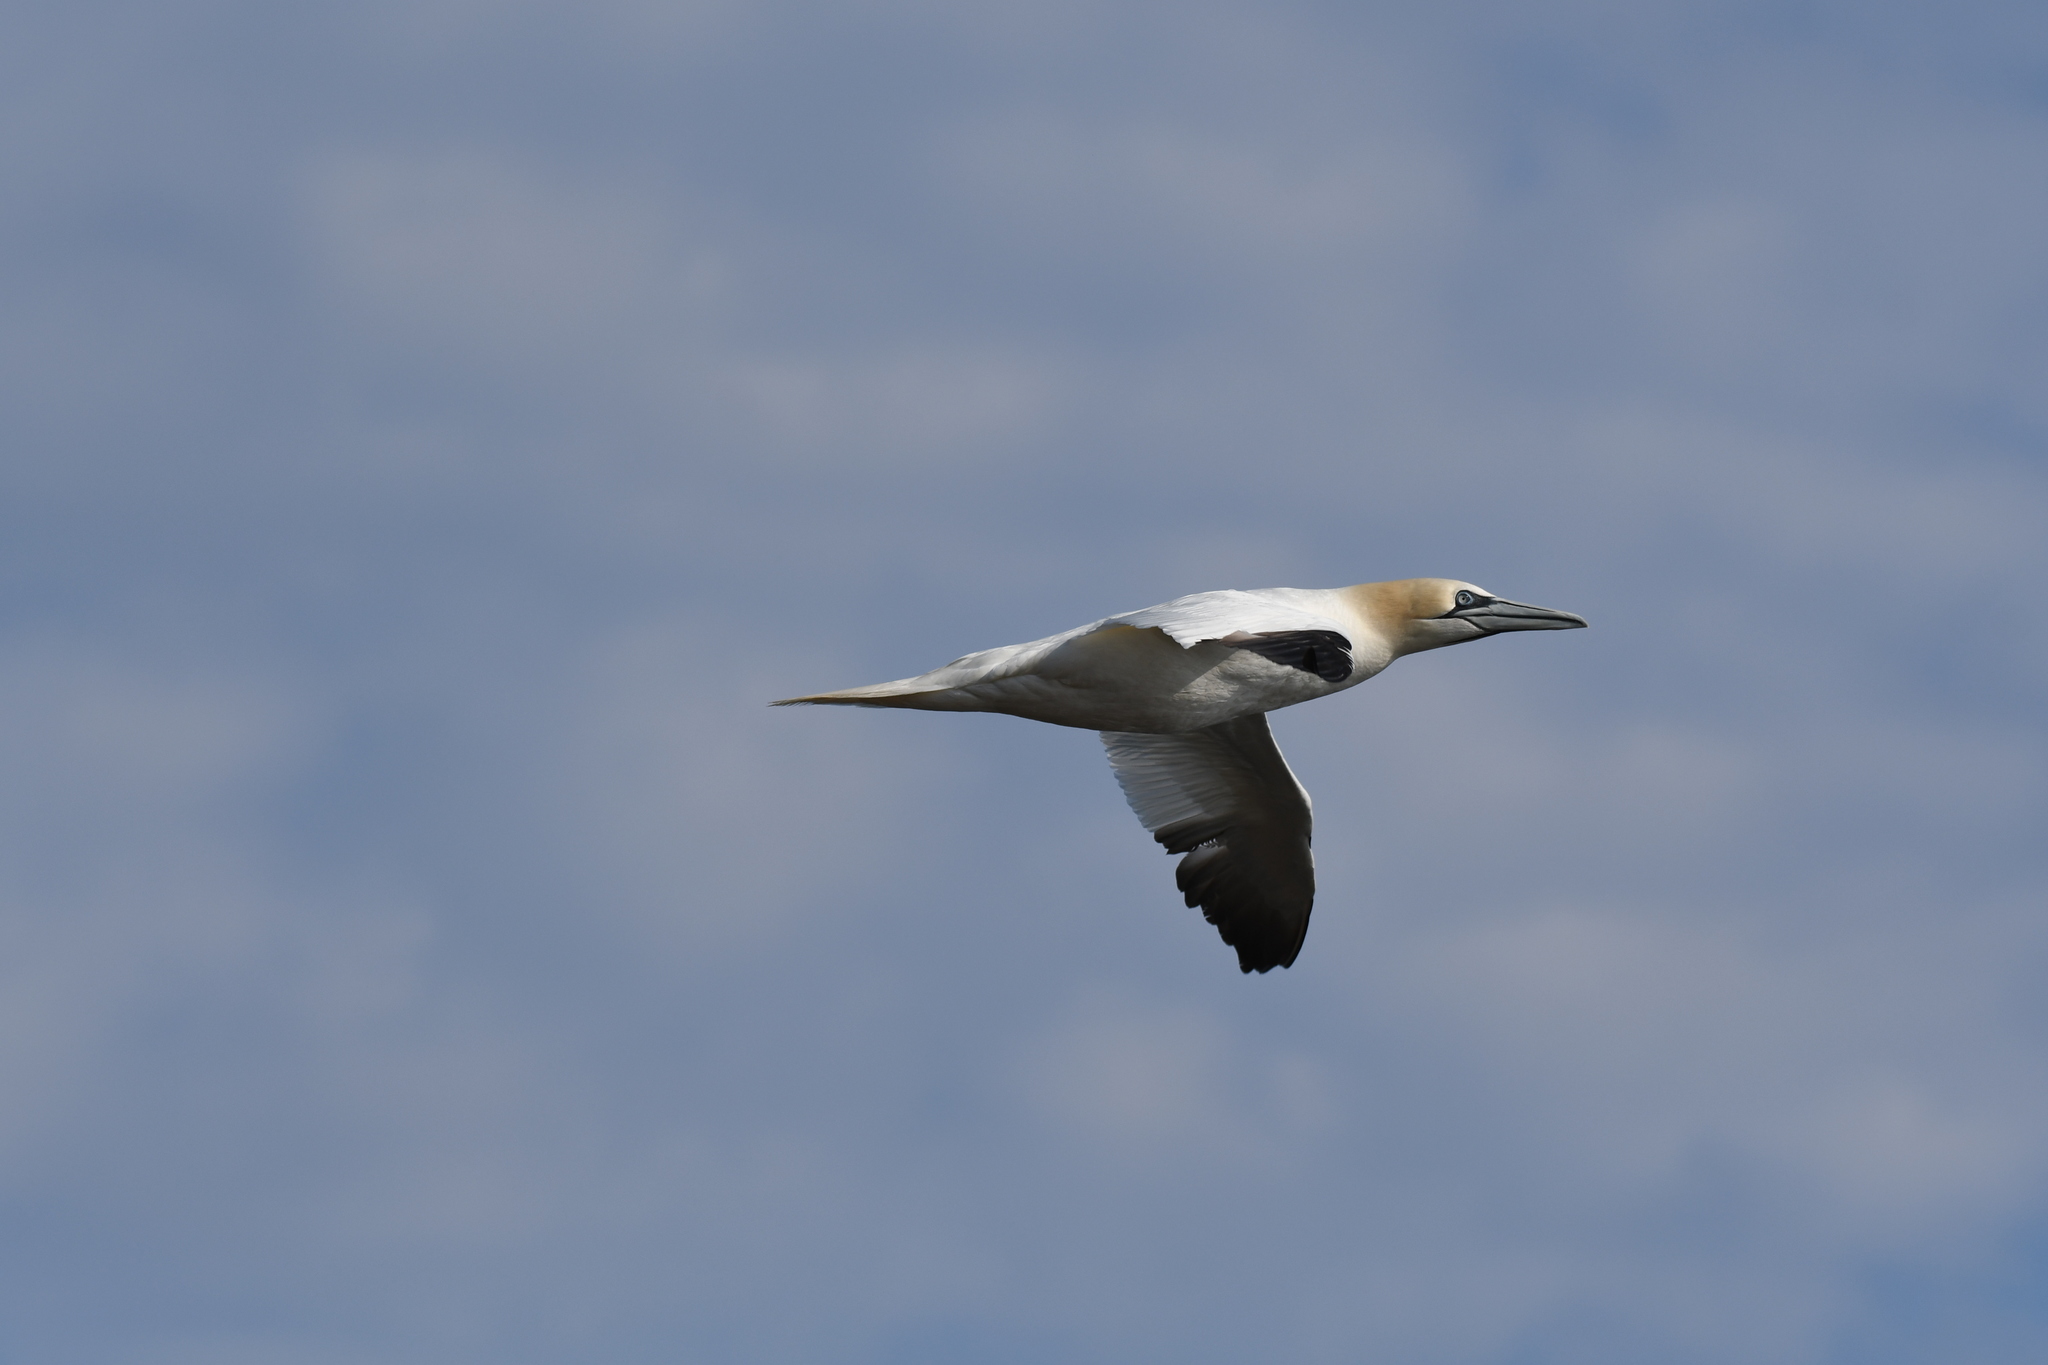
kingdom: Animalia
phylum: Chordata
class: Aves
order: Suliformes
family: Sulidae
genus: Morus
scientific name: Morus bassanus
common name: Northern gannet
